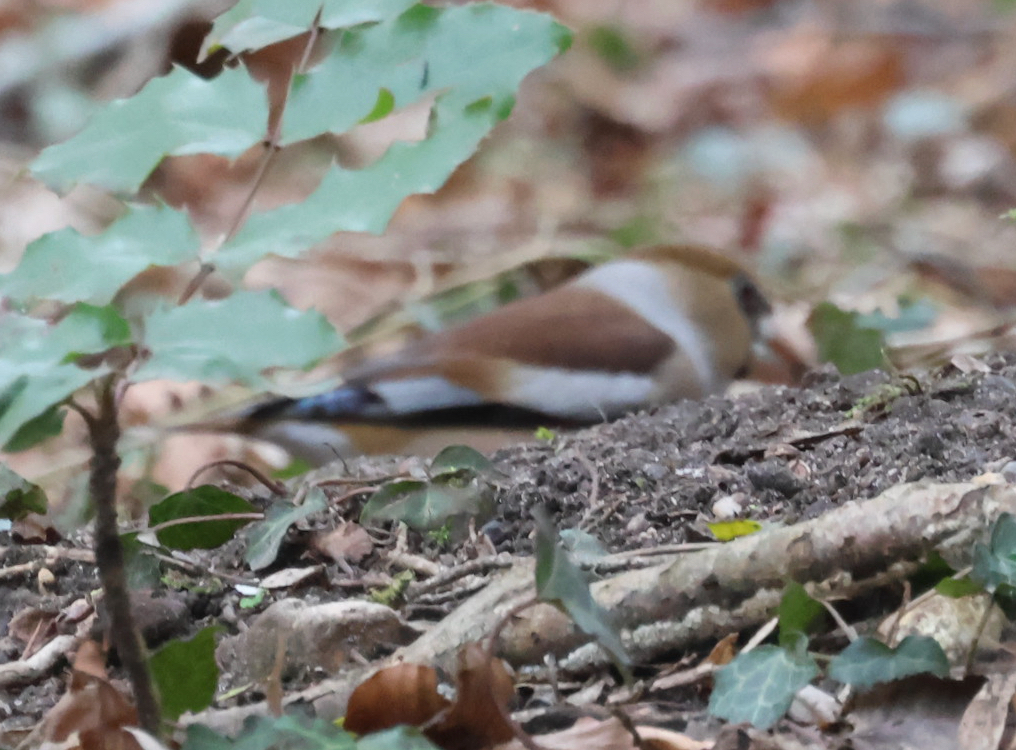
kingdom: Animalia
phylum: Chordata
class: Aves
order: Passeriformes
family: Fringillidae
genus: Coccothraustes
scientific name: Coccothraustes coccothraustes
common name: Hawfinch
